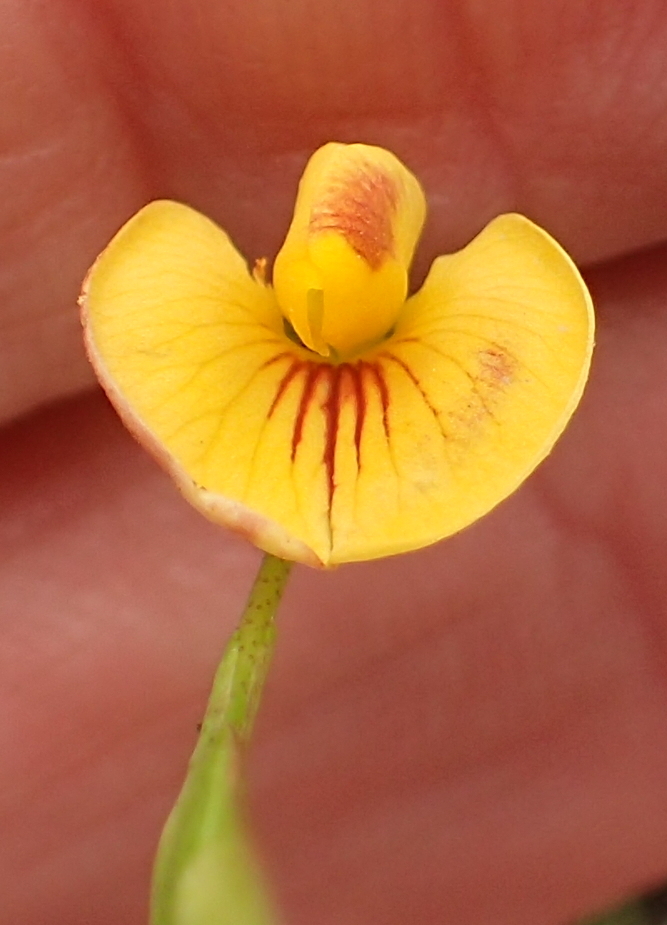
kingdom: Plantae
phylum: Tracheophyta
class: Magnoliopsida
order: Fabales
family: Fabaceae
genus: Zornia
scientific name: Zornia capensis
